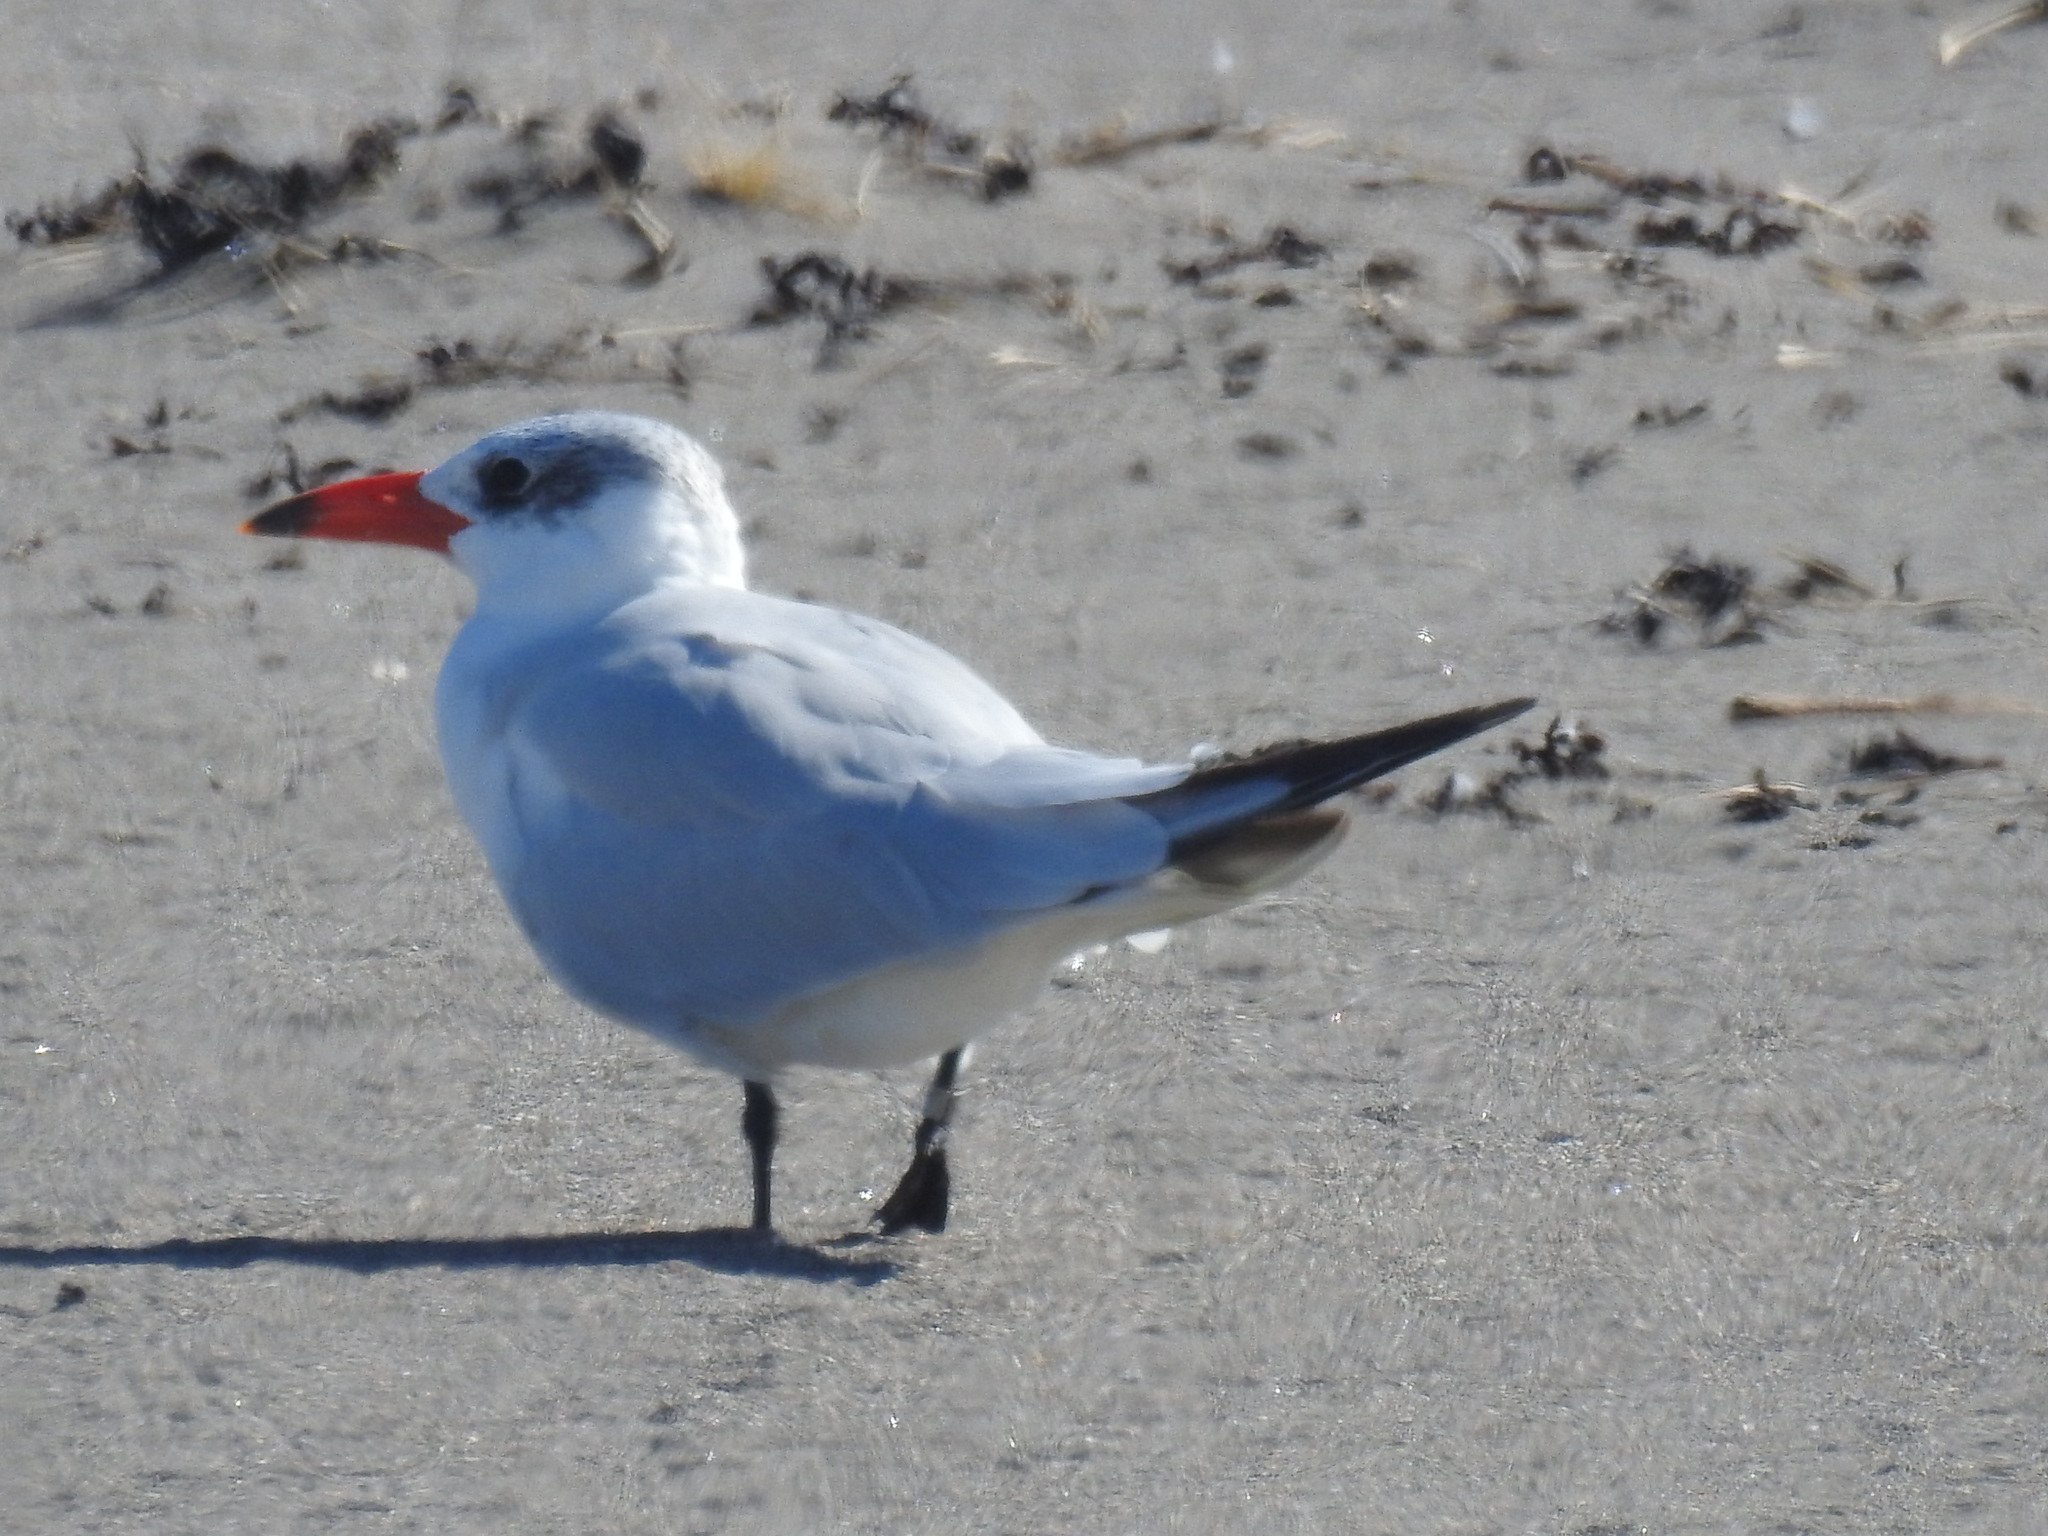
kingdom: Animalia
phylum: Chordata
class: Aves
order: Charadriiformes
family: Laridae
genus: Hydroprogne
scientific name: Hydroprogne caspia
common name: Caspian tern
